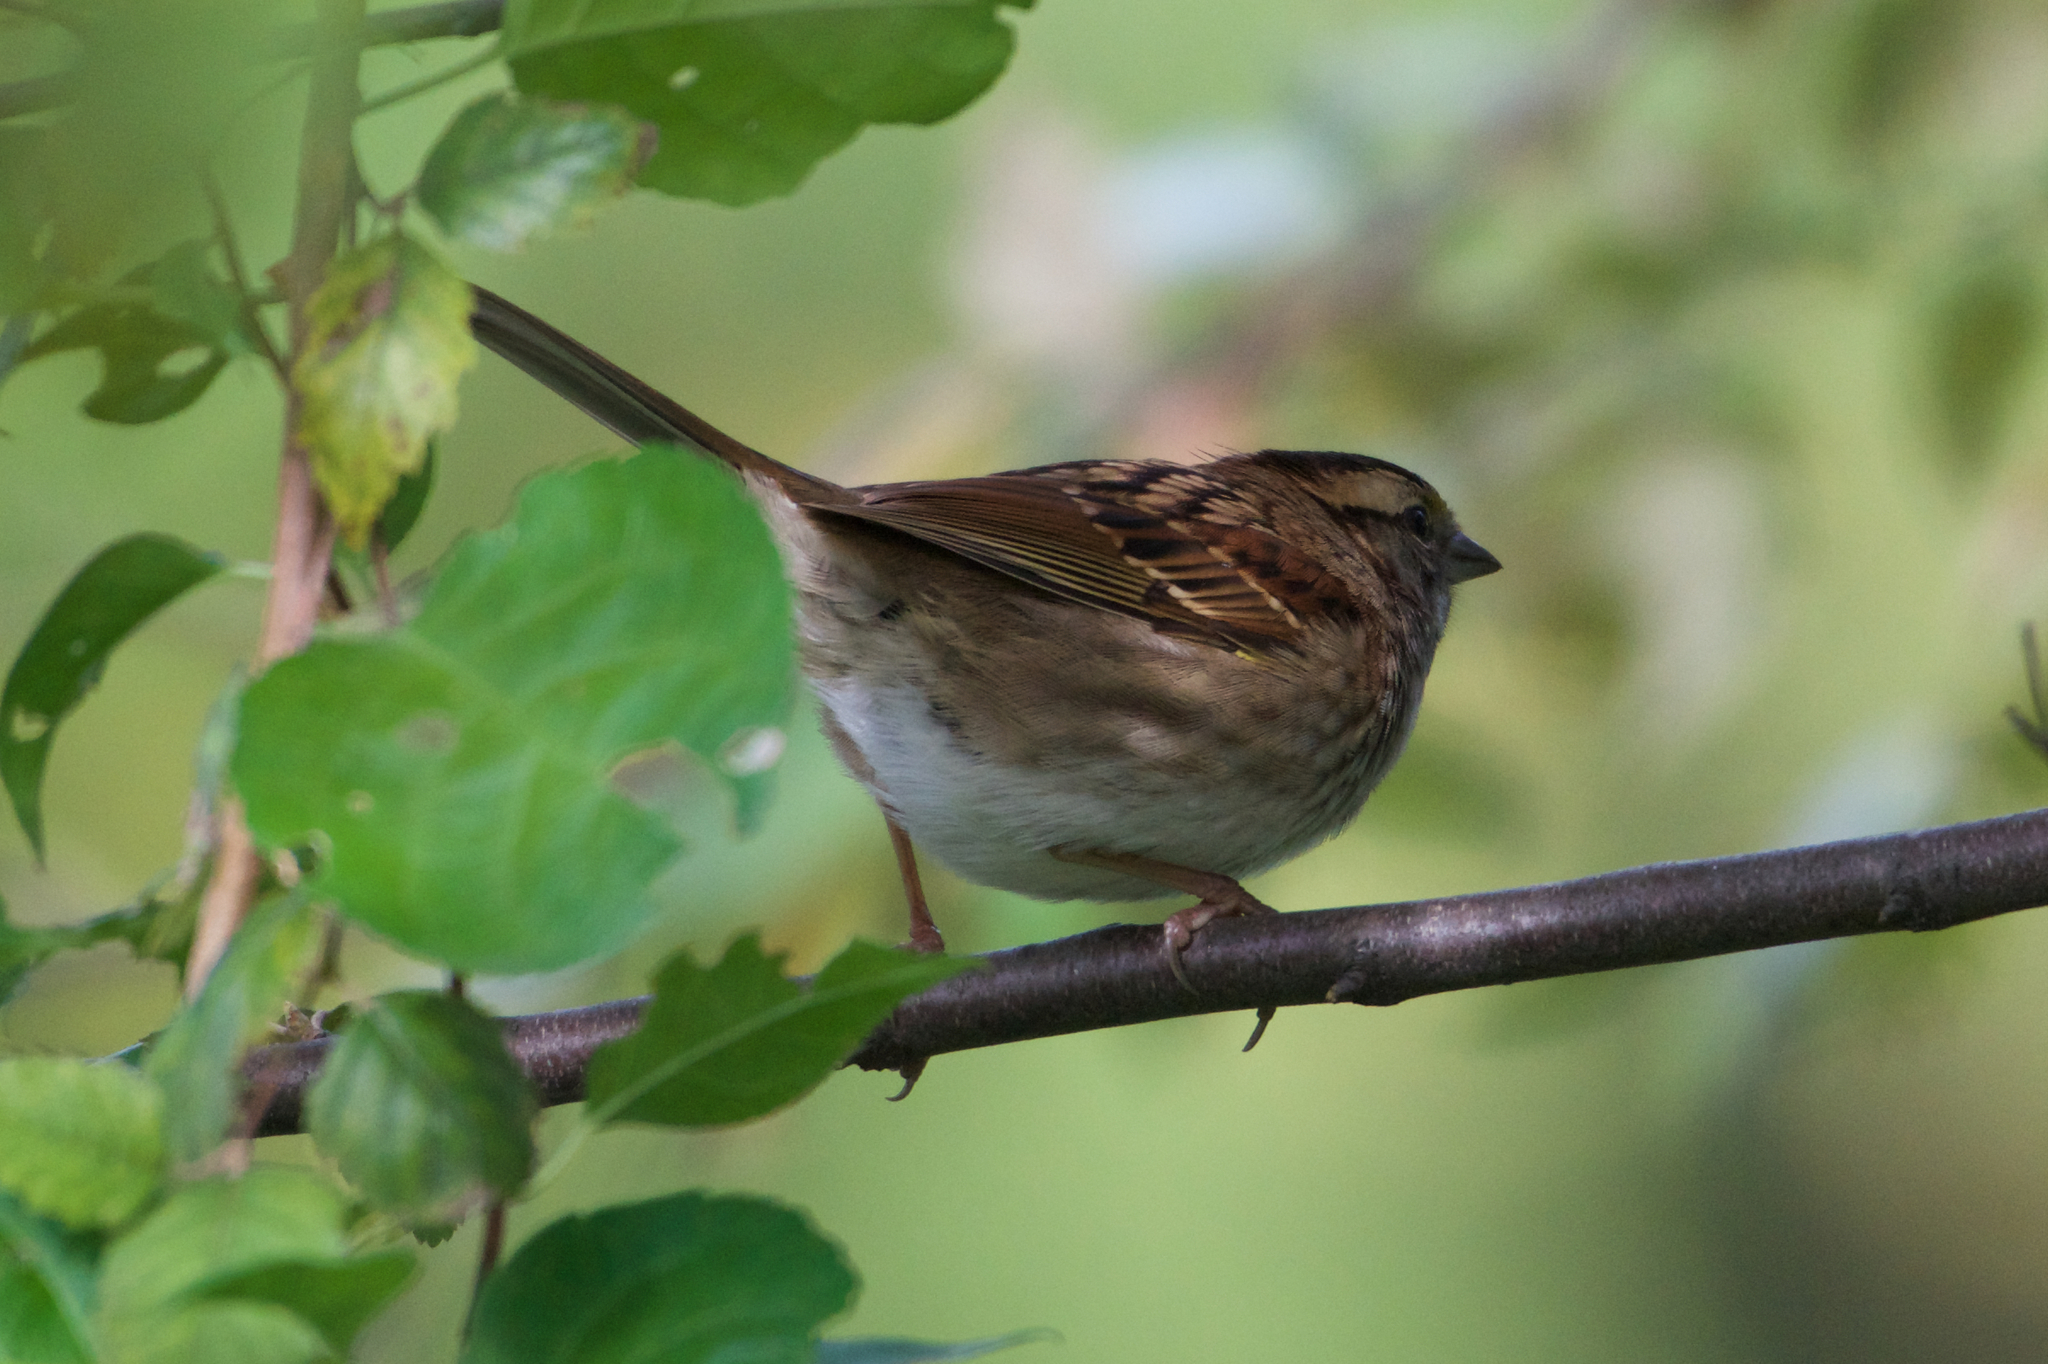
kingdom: Animalia
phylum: Chordata
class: Aves
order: Passeriformes
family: Passerellidae
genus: Zonotrichia
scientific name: Zonotrichia albicollis
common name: White-throated sparrow
